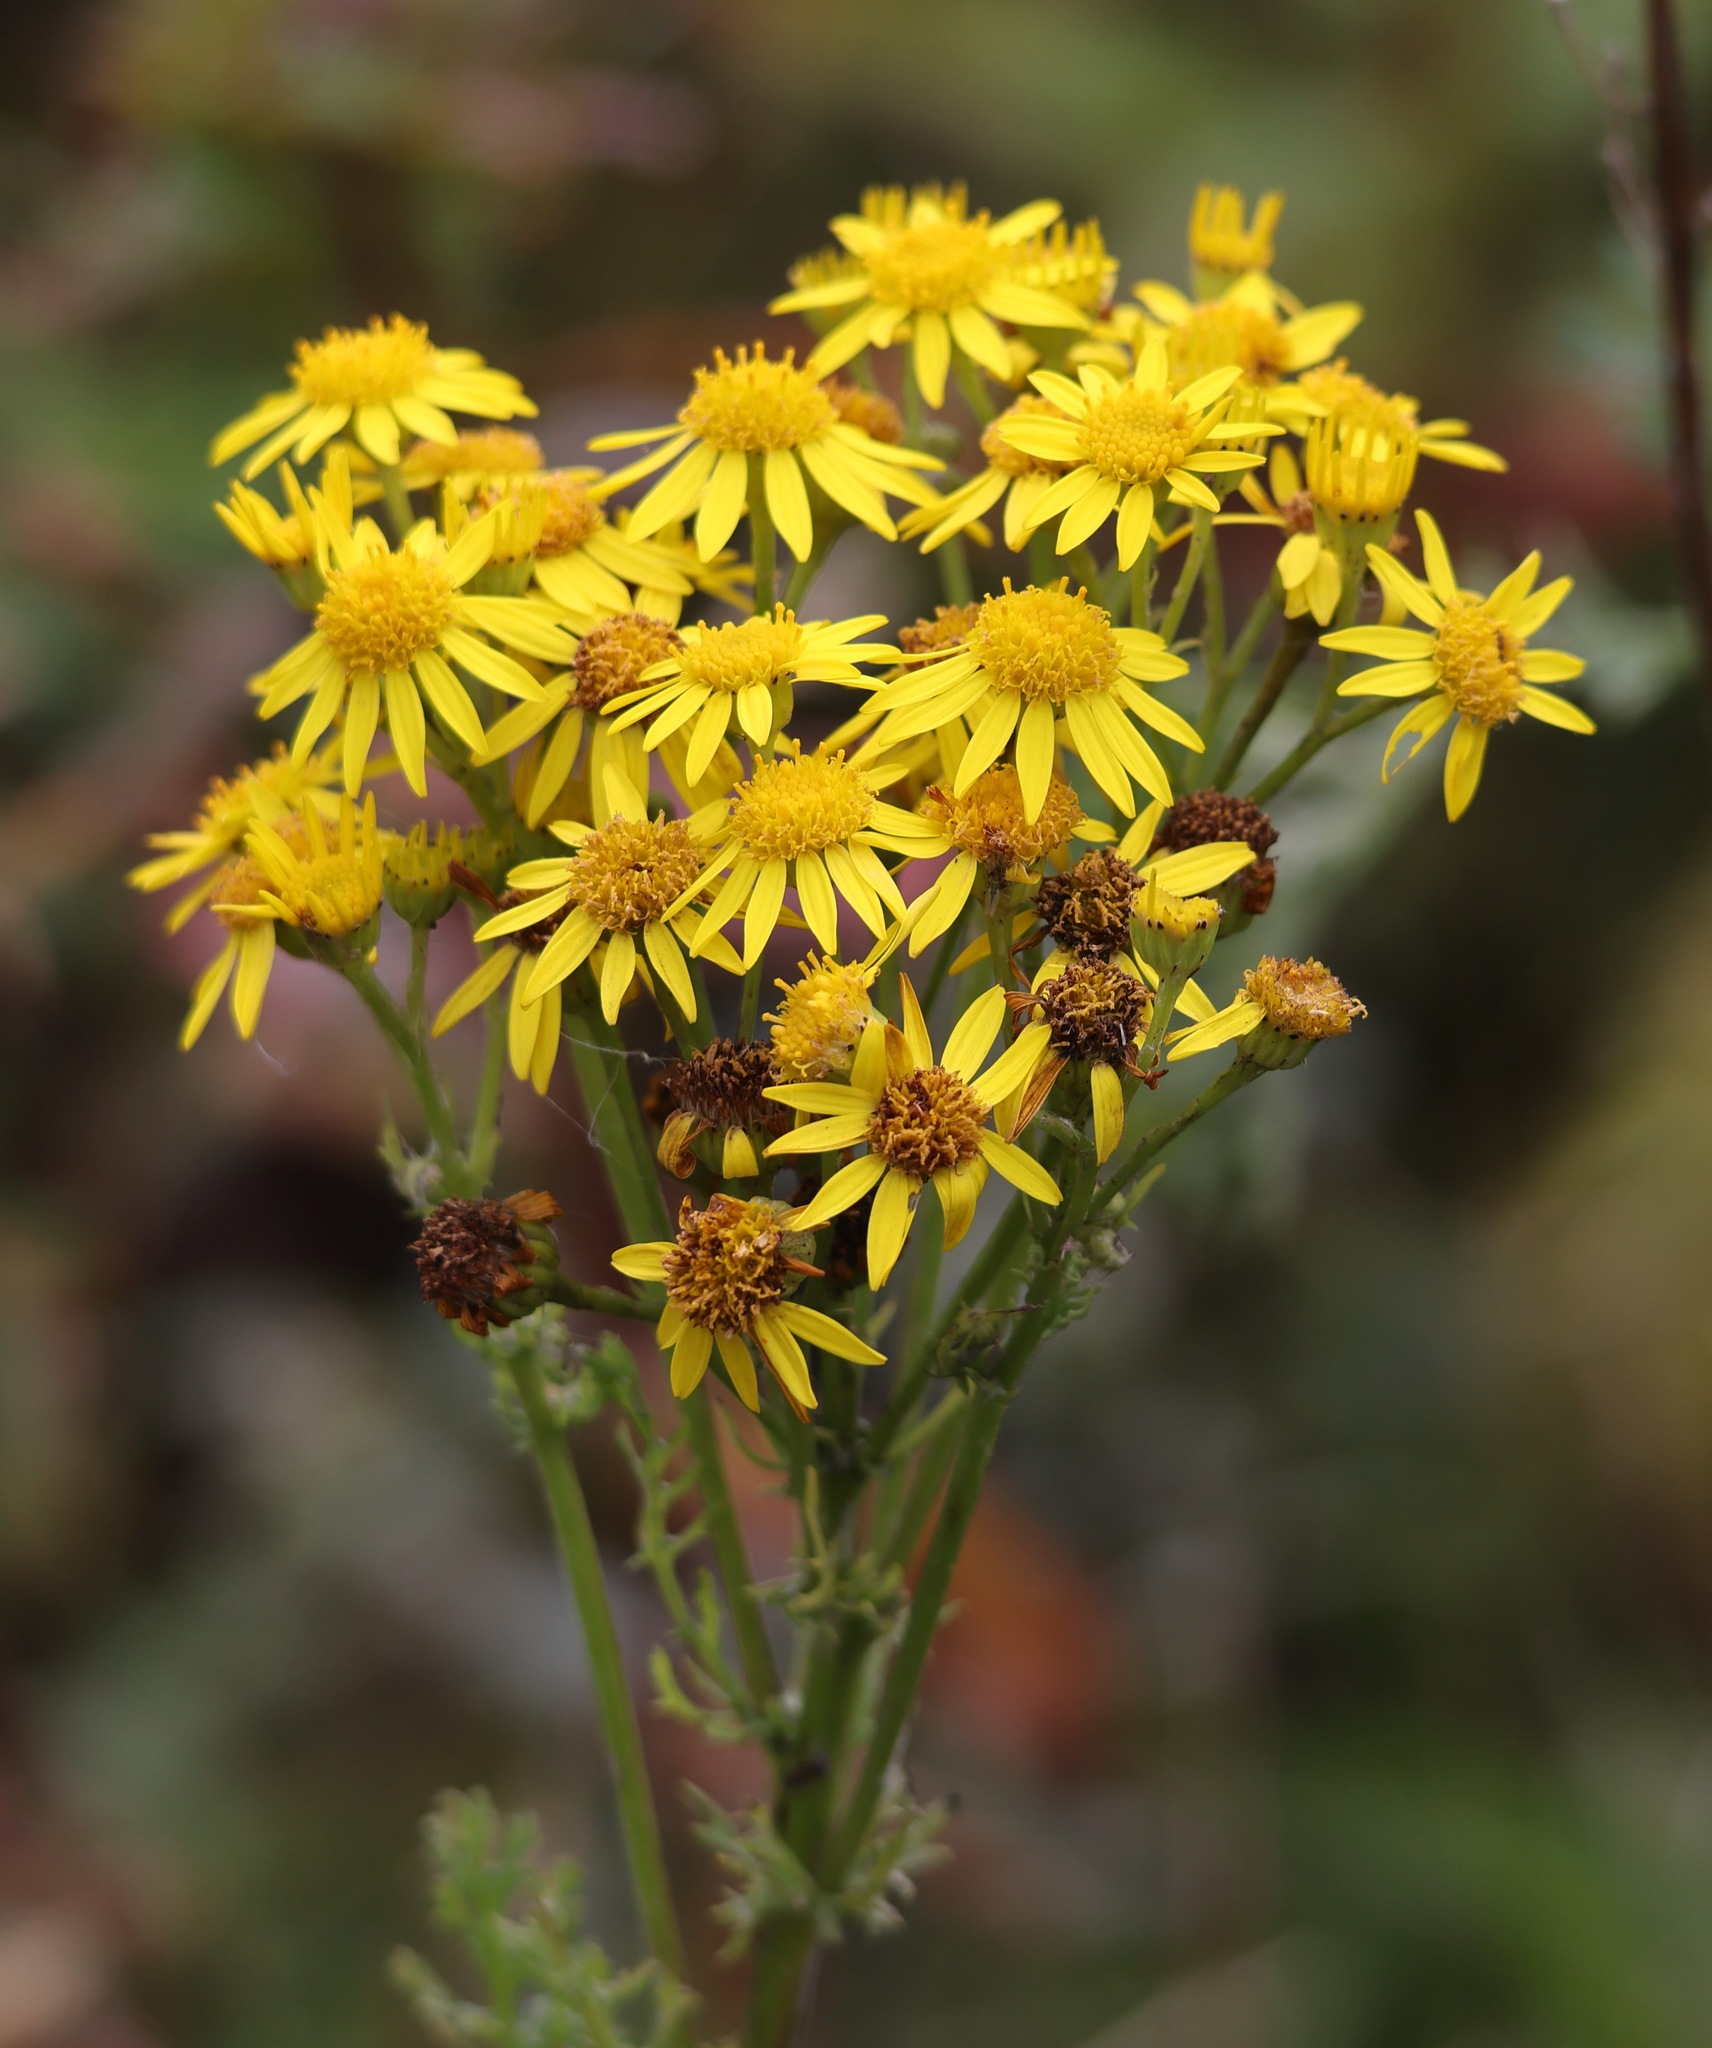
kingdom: Plantae
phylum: Tracheophyta
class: Magnoliopsida
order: Asterales
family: Asteraceae
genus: Jacobaea
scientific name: Jacobaea vulgaris
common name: Stinking willie
